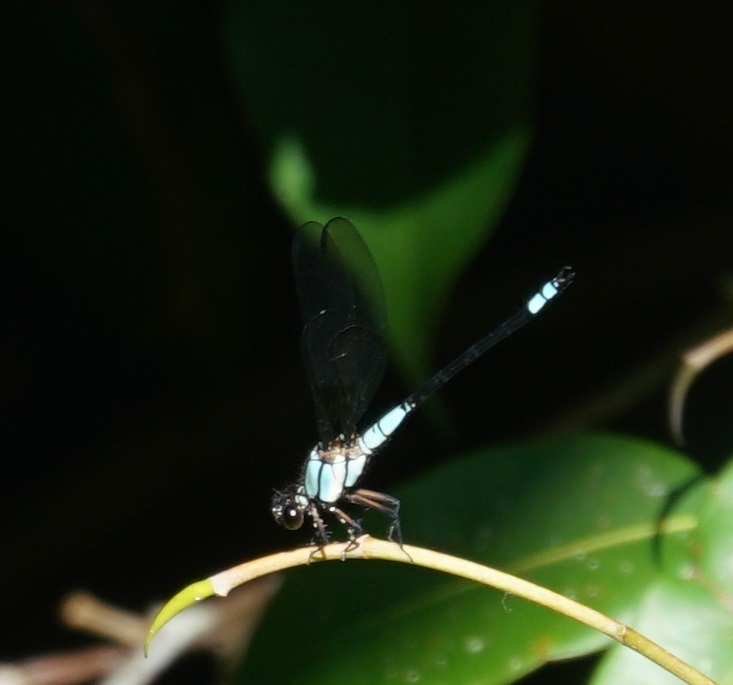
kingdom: Animalia
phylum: Arthropoda
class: Insecta
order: Odonata
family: Lestoideidae
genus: Diphlebia
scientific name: Diphlebia euphoeoides
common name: Tropical rockmaster
